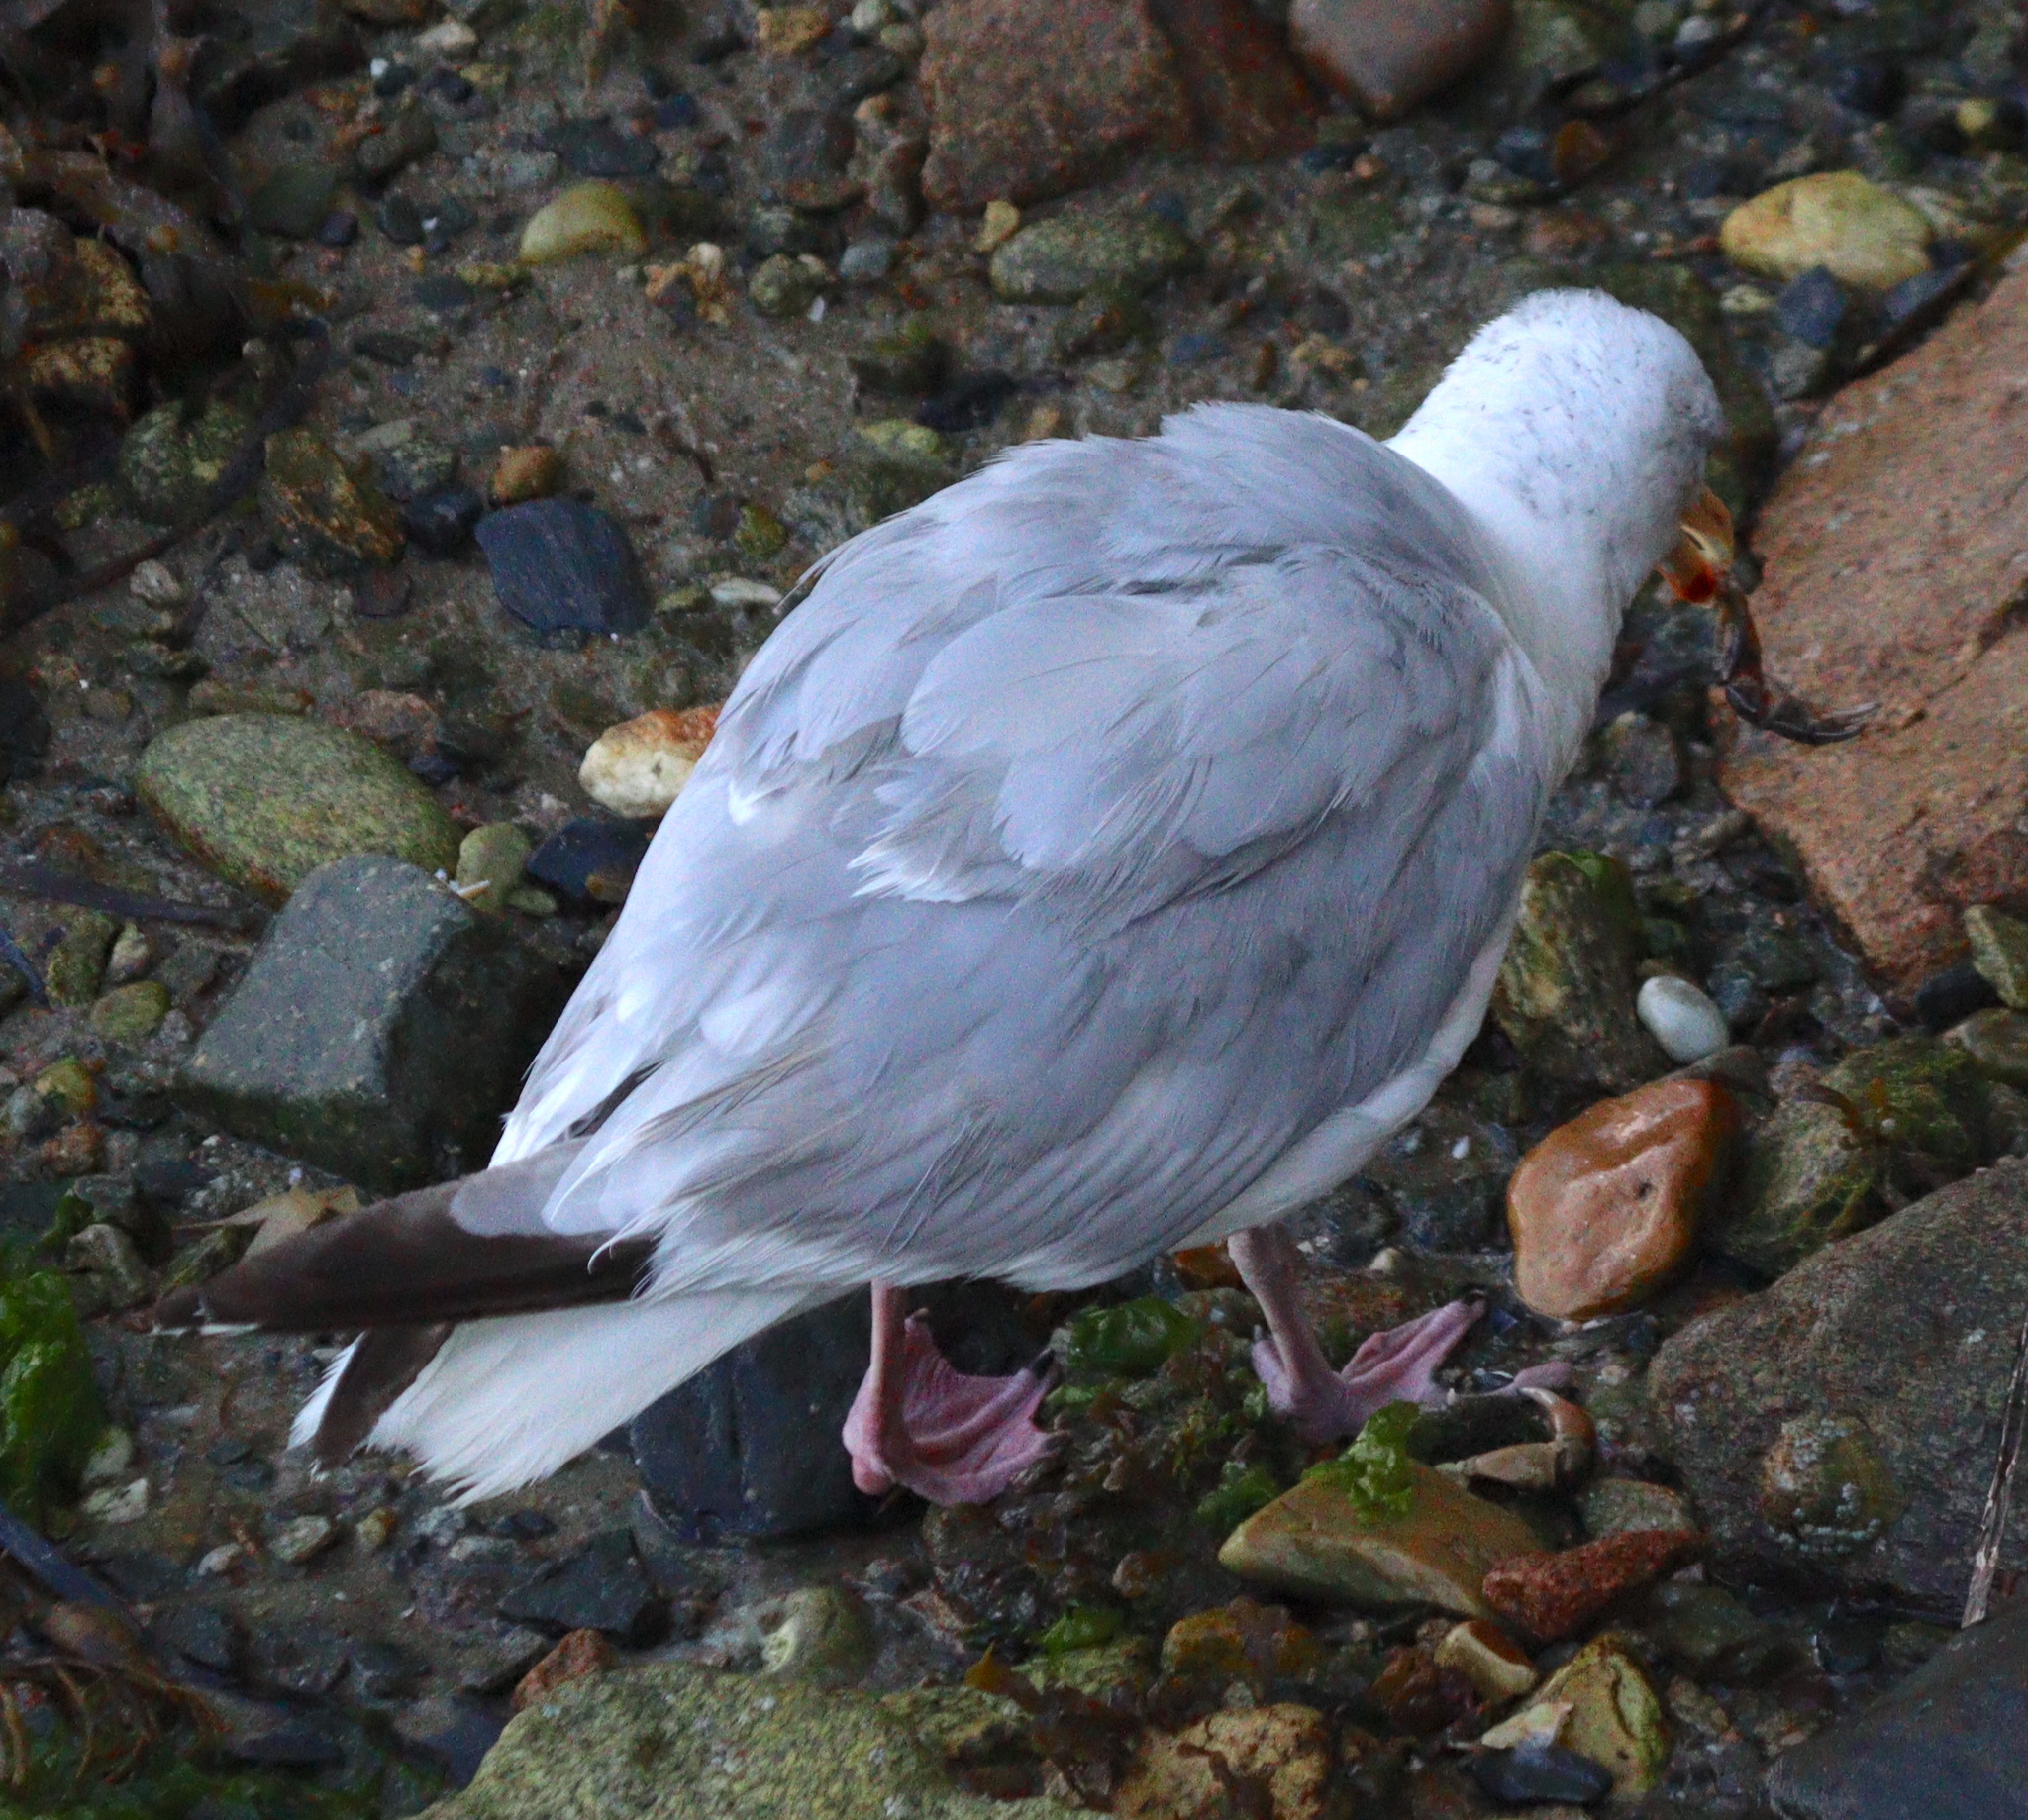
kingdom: Animalia
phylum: Chordata
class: Aves
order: Charadriiformes
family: Laridae
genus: Larus
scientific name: Larus argentatus
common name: Herring gull
